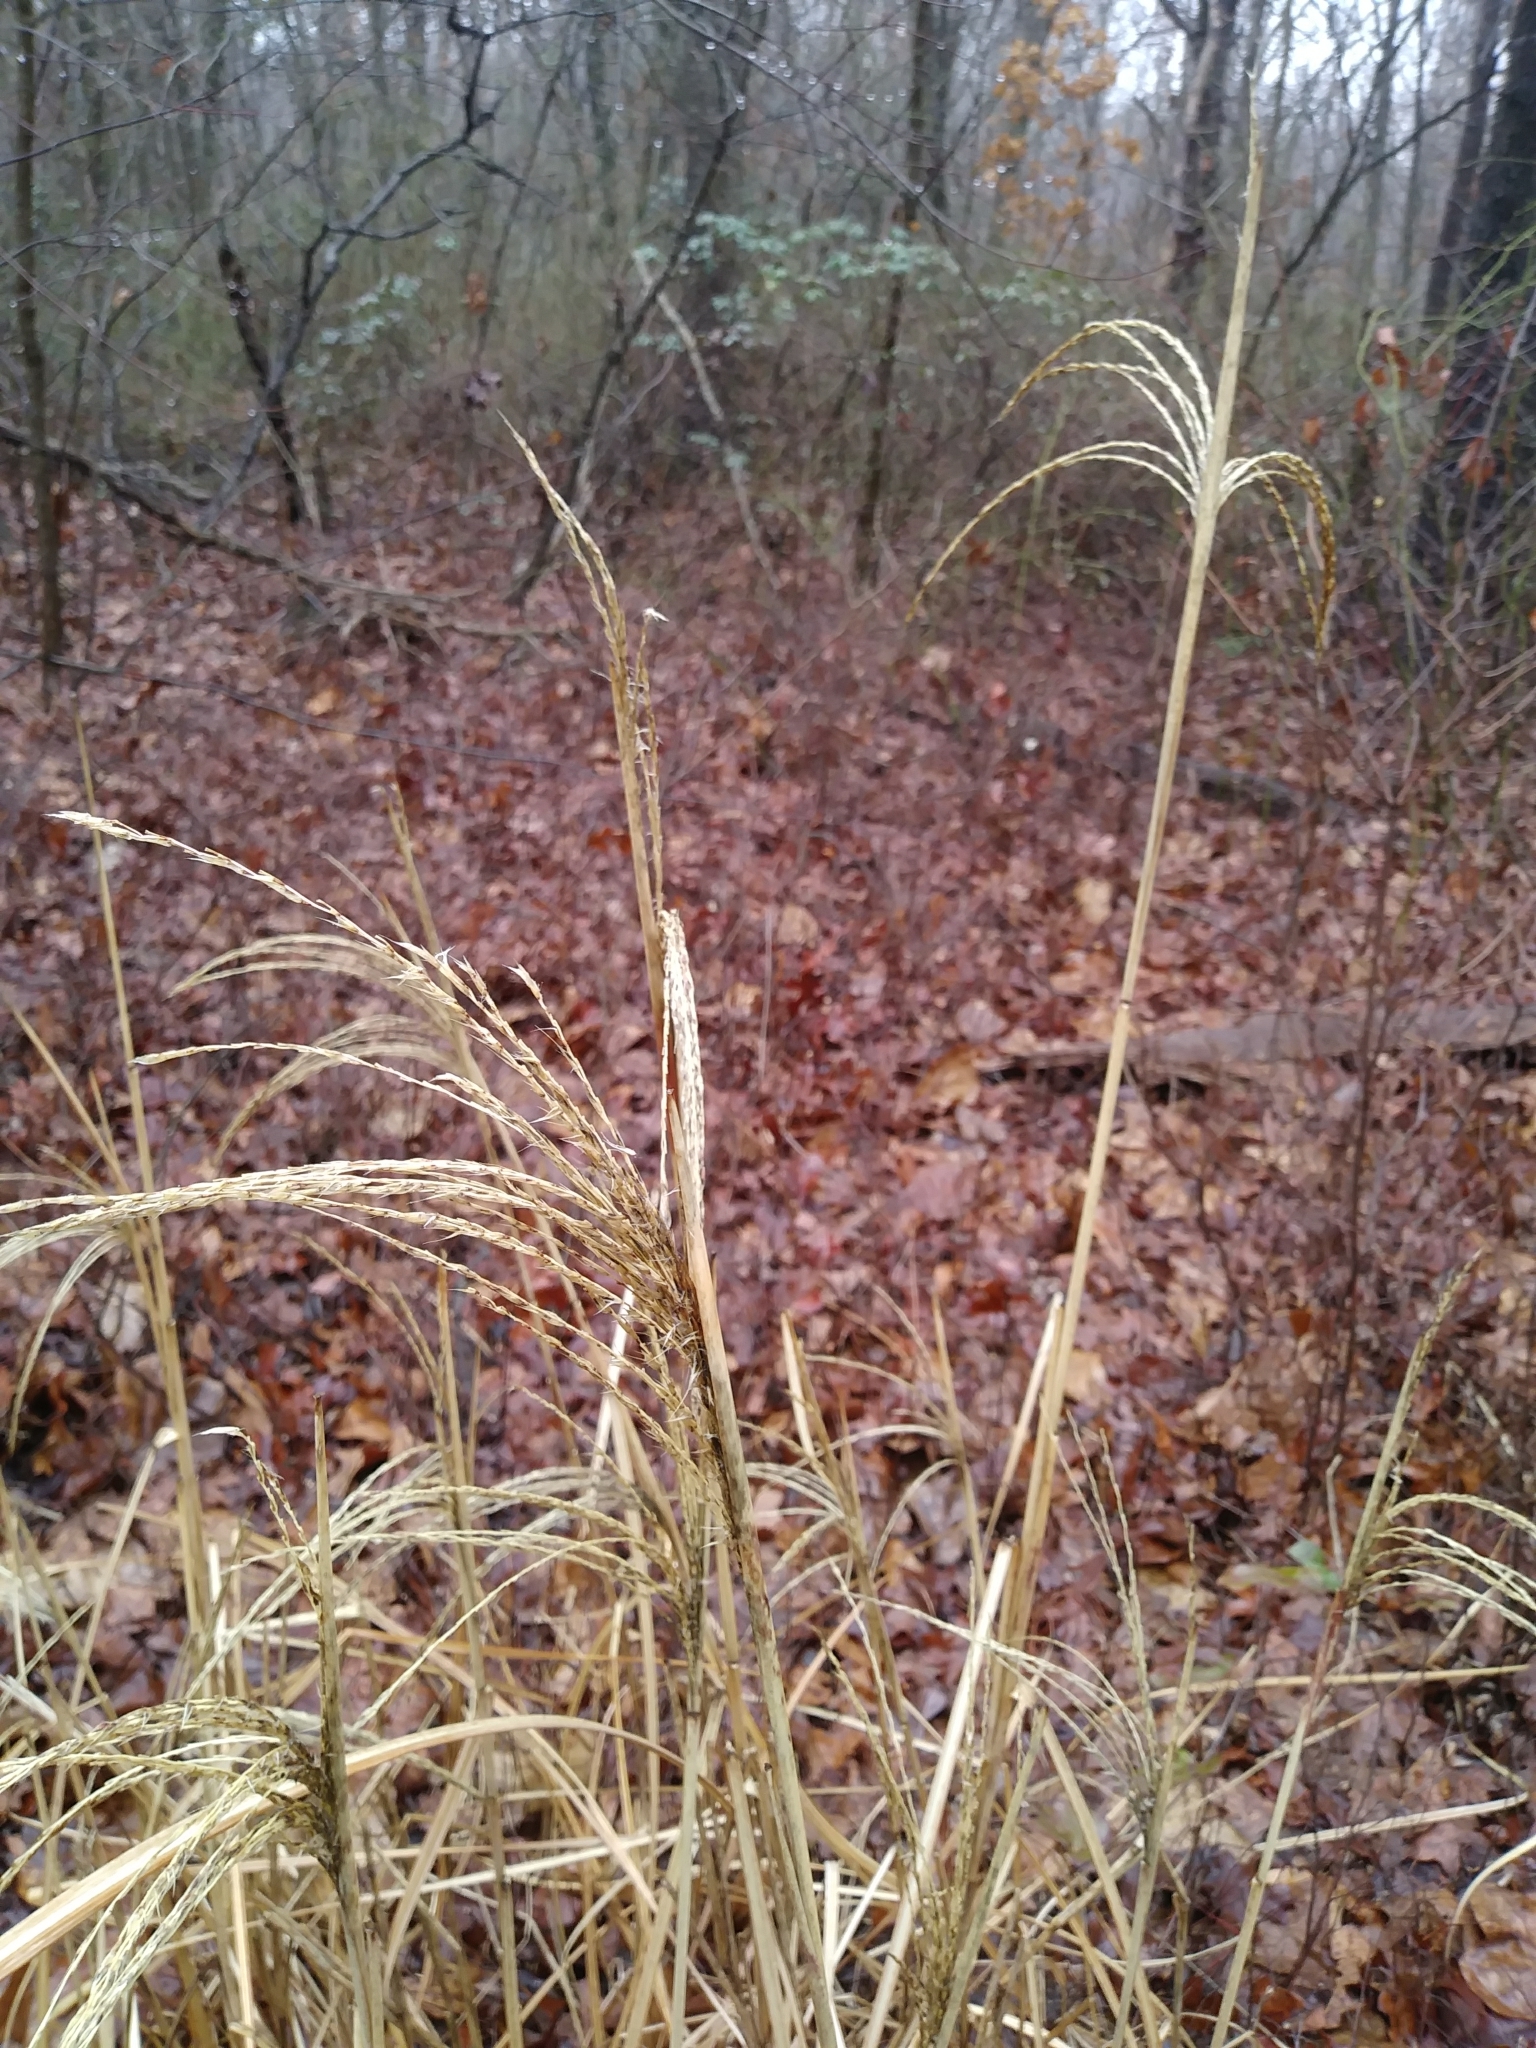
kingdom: Plantae
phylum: Tracheophyta
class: Liliopsida
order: Poales
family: Poaceae
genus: Miscanthus
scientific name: Miscanthus sinensis
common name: Chinese silvergrass
